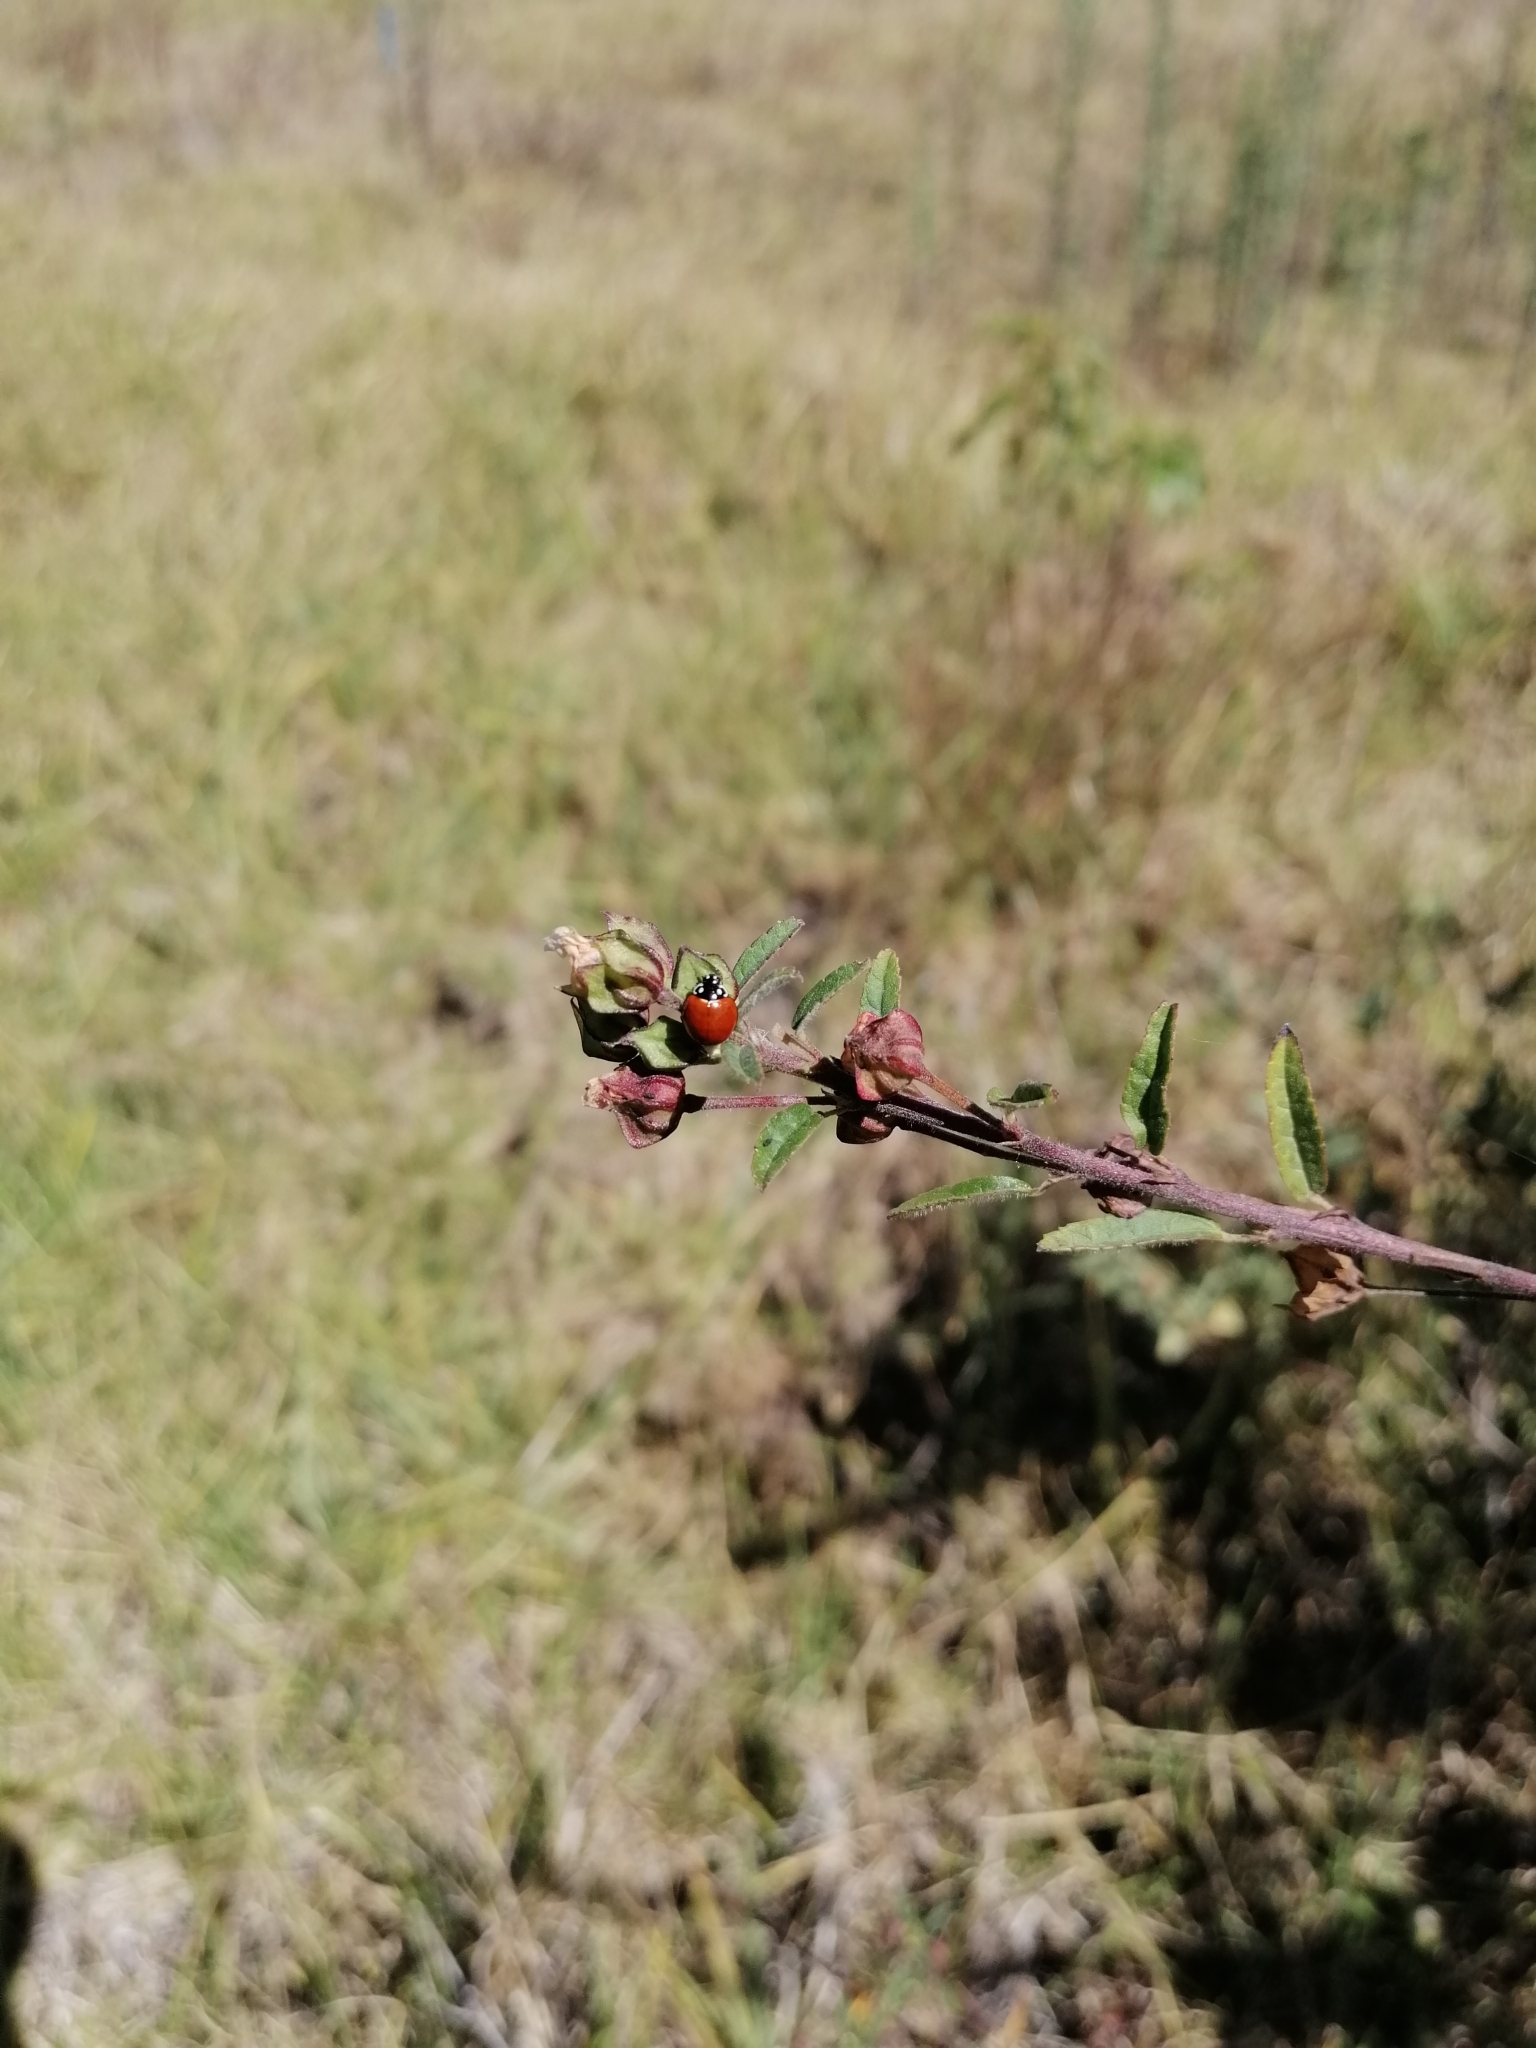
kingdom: Animalia
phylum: Arthropoda
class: Insecta
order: Coleoptera
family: Coccinellidae
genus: Cycloneda
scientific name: Cycloneda sanguinea
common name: Ladybird beetle
